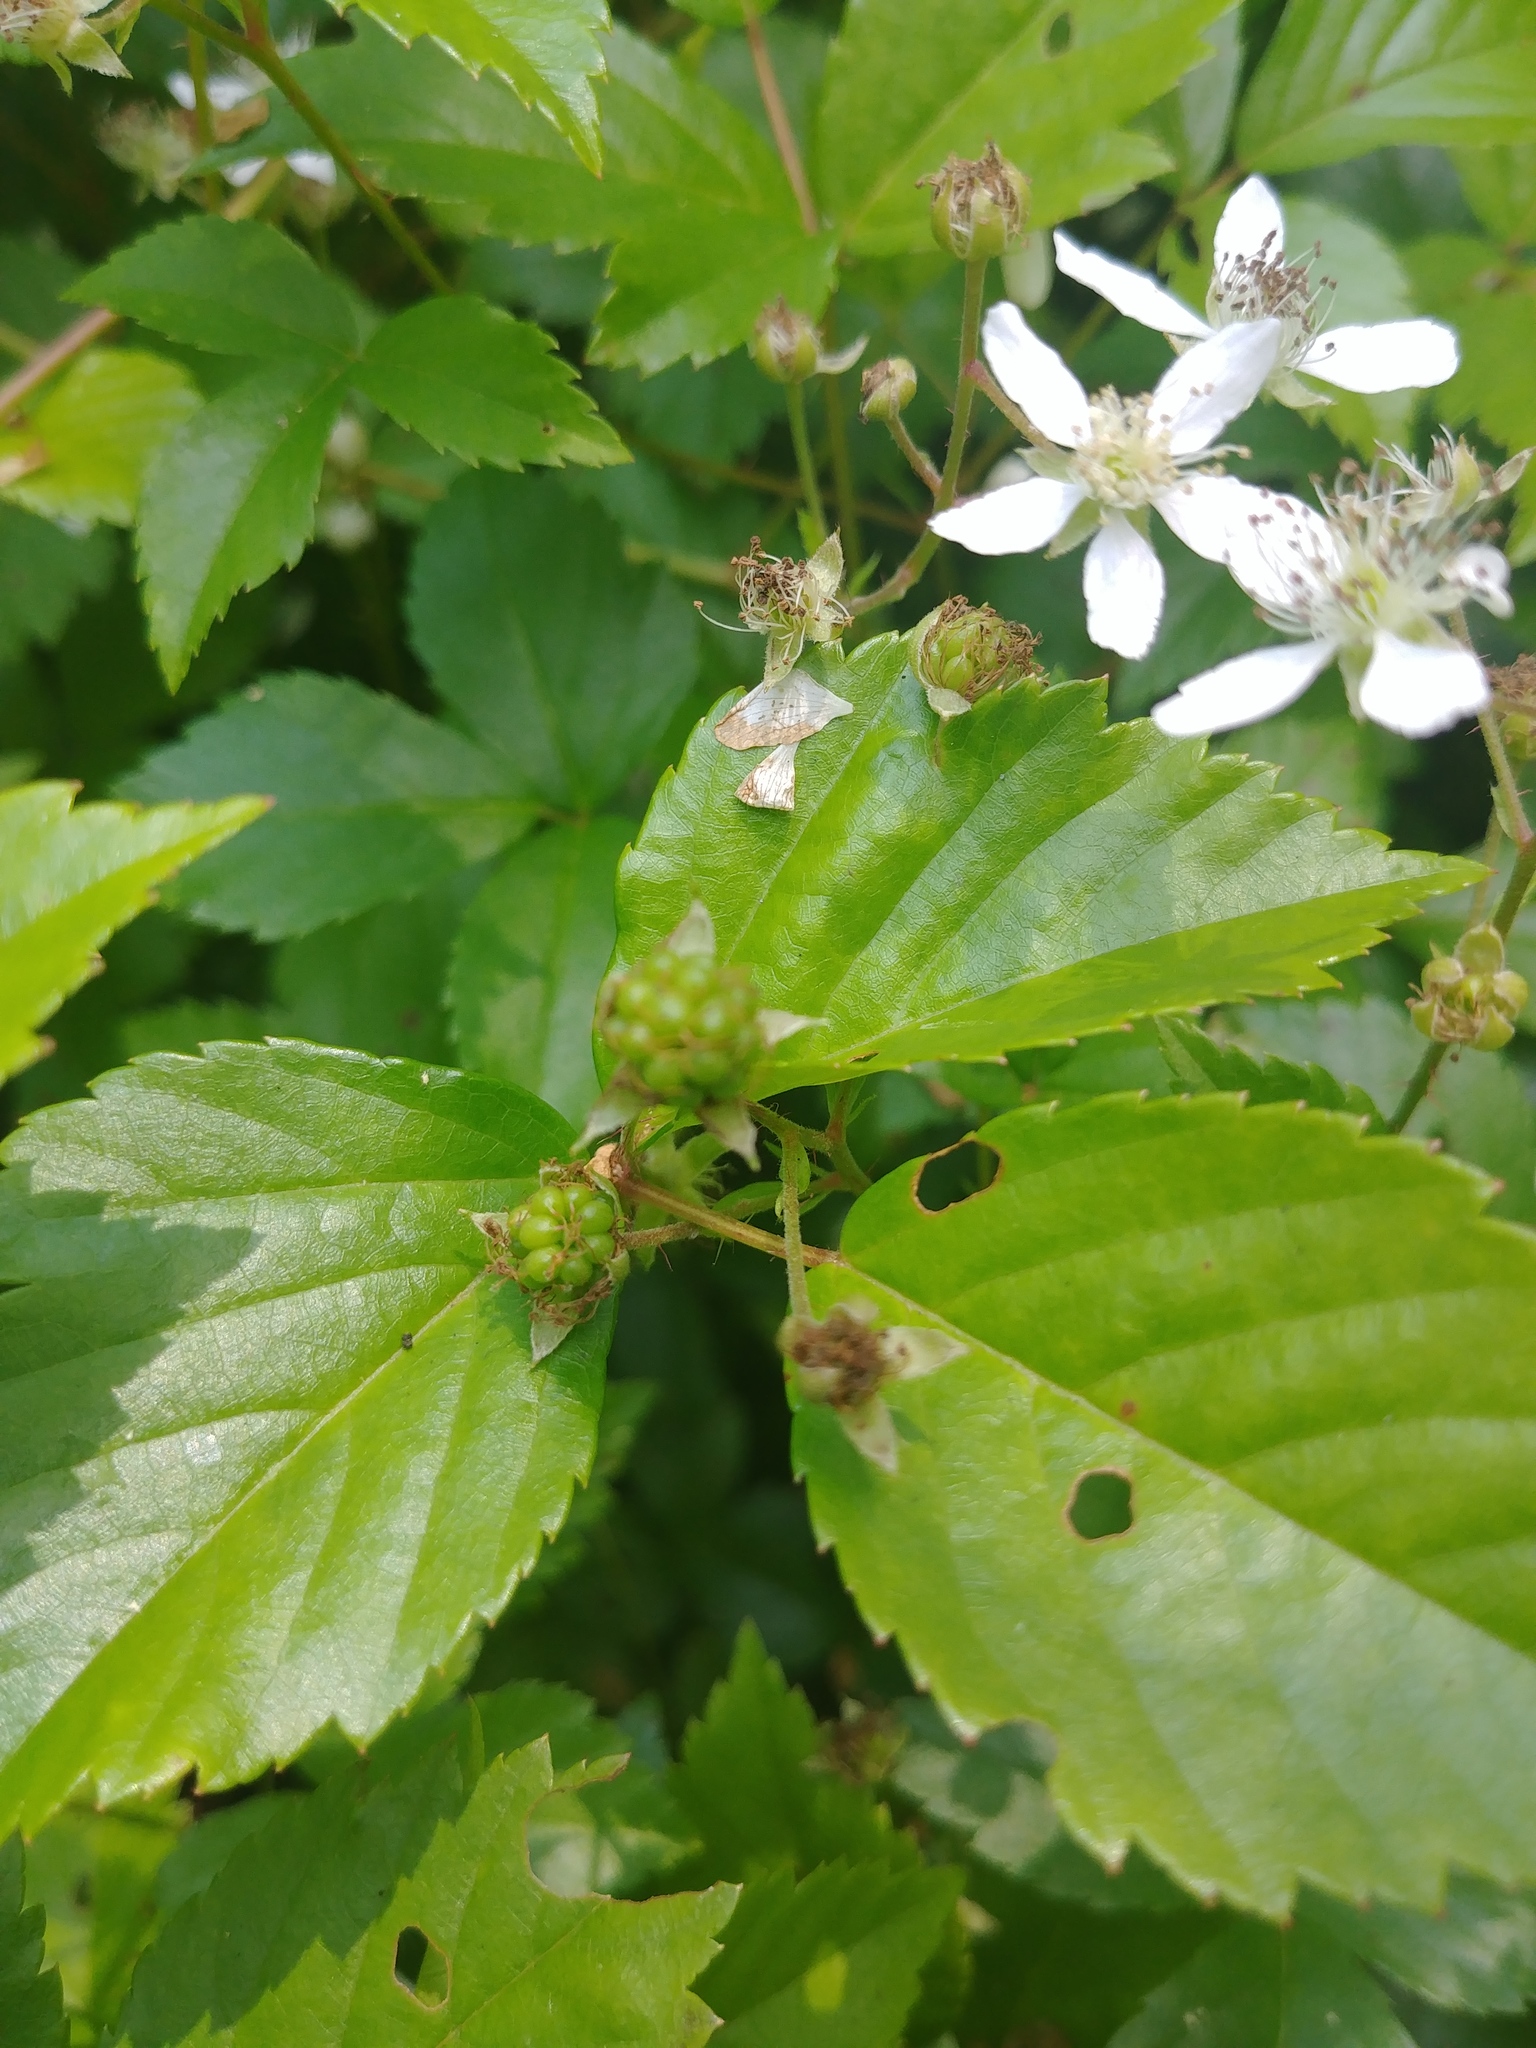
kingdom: Plantae
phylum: Tracheophyta
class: Magnoliopsida
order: Rosales
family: Rosaceae
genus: Rubus
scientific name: Rubus hispidus
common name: Running blackberry
